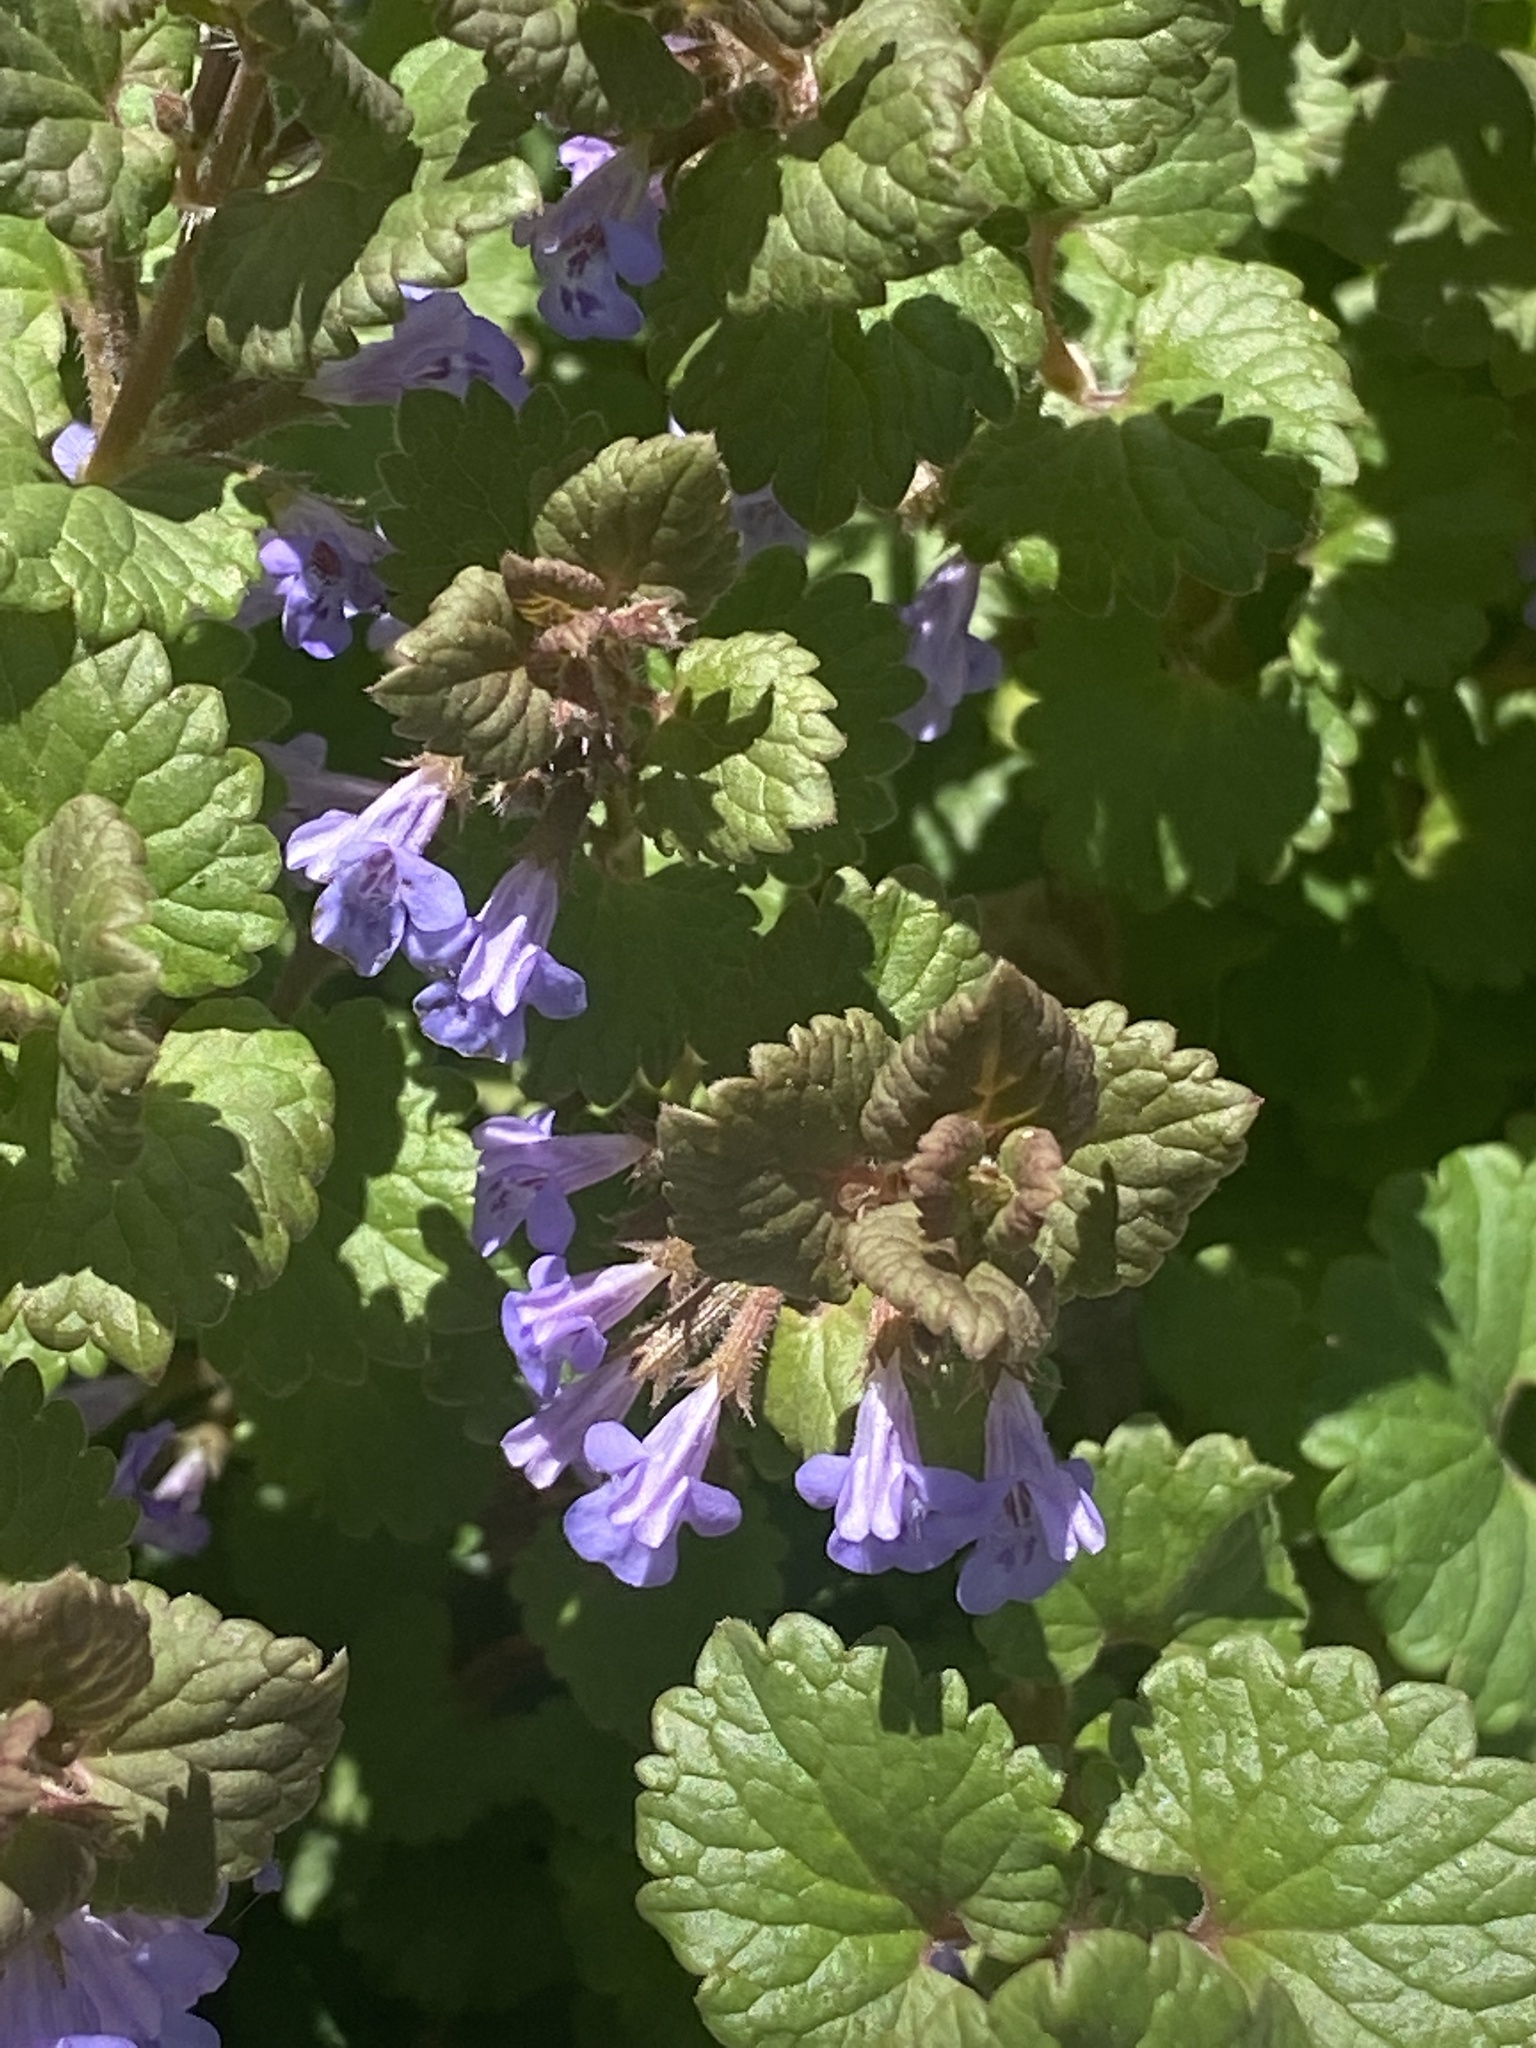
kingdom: Plantae
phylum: Tracheophyta
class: Magnoliopsida
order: Lamiales
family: Lamiaceae
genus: Glechoma
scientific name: Glechoma hederacea
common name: Ground ivy
